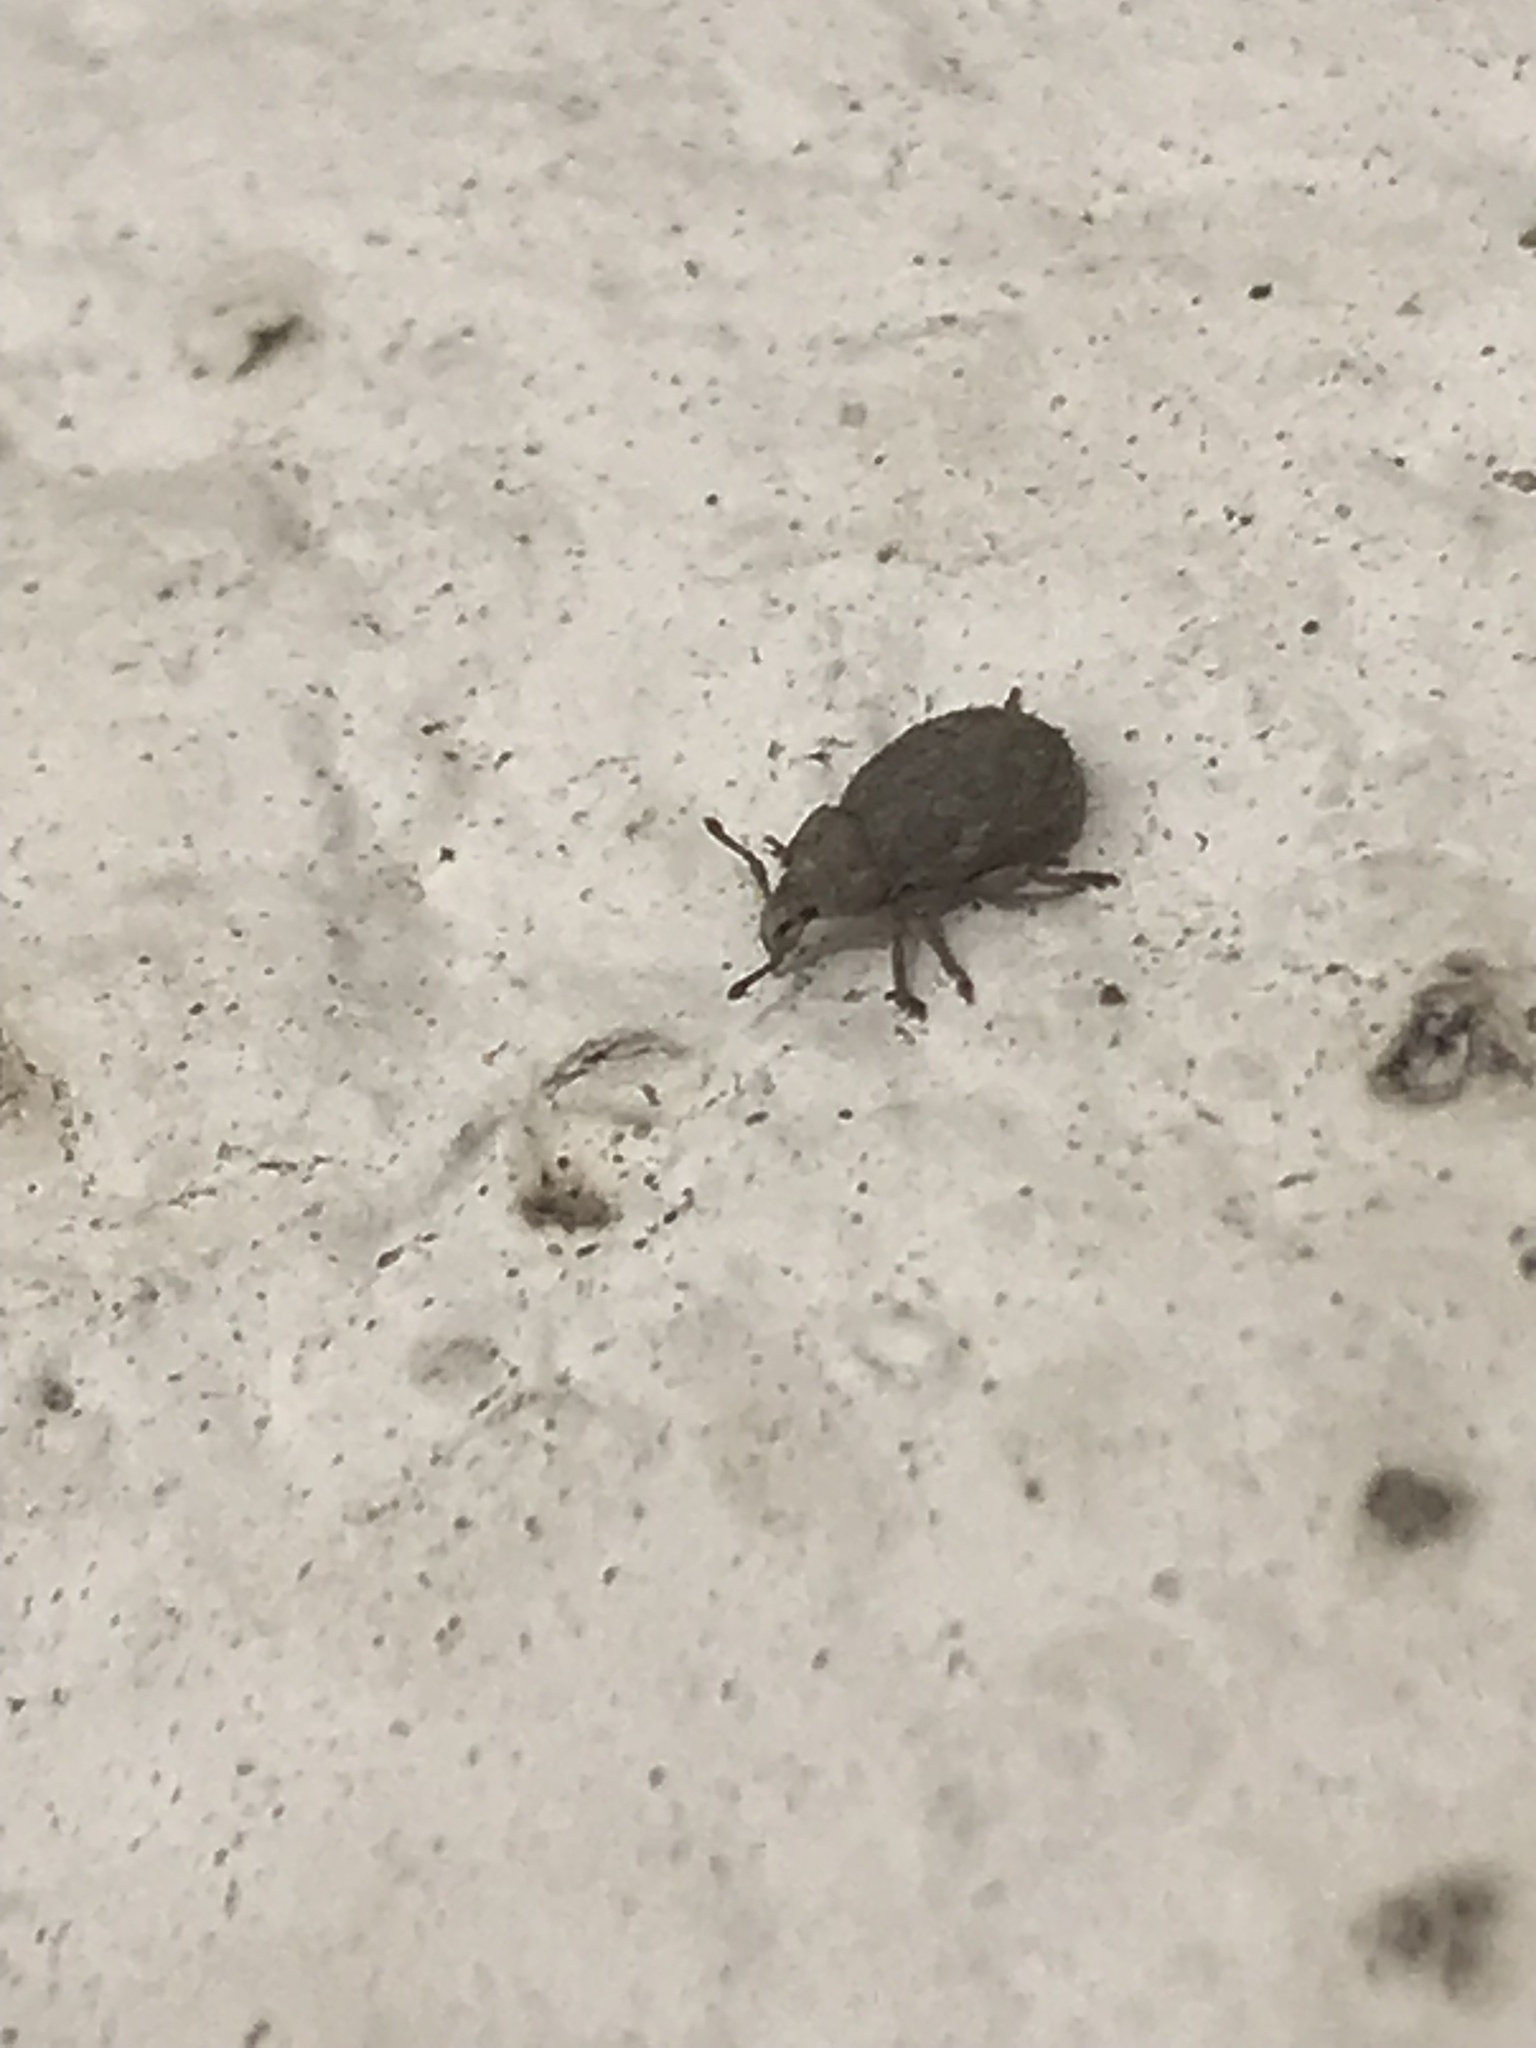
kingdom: Animalia
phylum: Arthropoda
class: Insecta
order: Coleoptera
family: Curculionidae
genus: Romualdius
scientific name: Romualdius scaber
